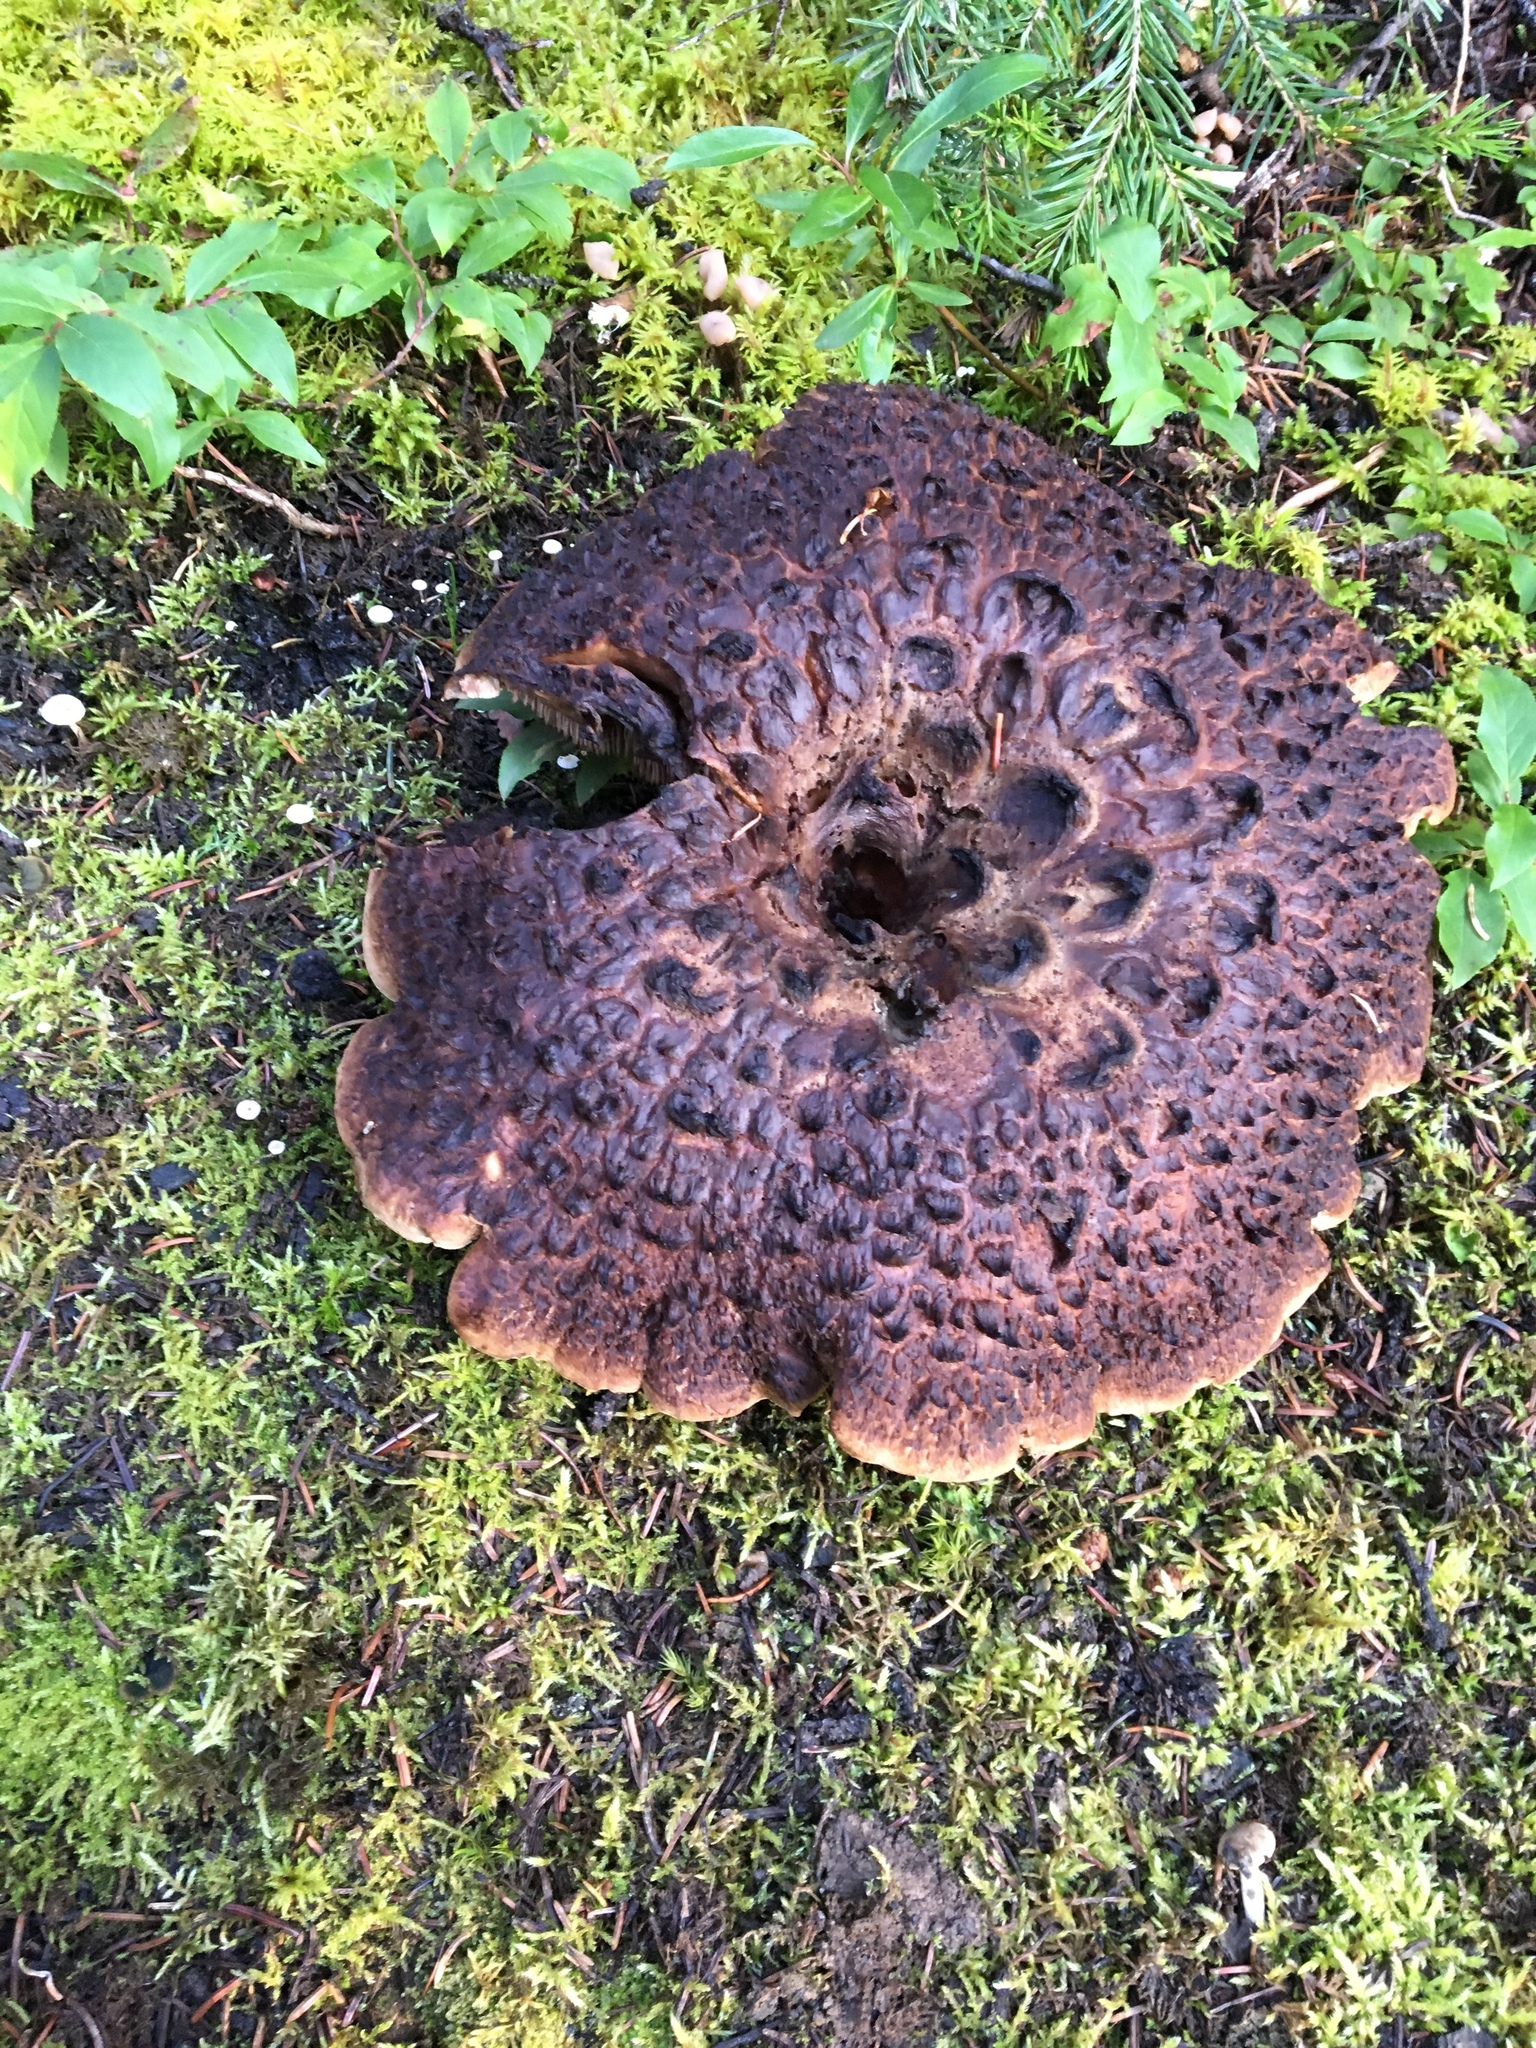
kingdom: Fungi
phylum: Basidiomycota
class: Agaricomycetes
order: Thelephorales
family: Bankeraceae
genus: Sarcodon
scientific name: Sarcodon imbricatus
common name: Shingled hedgehog
